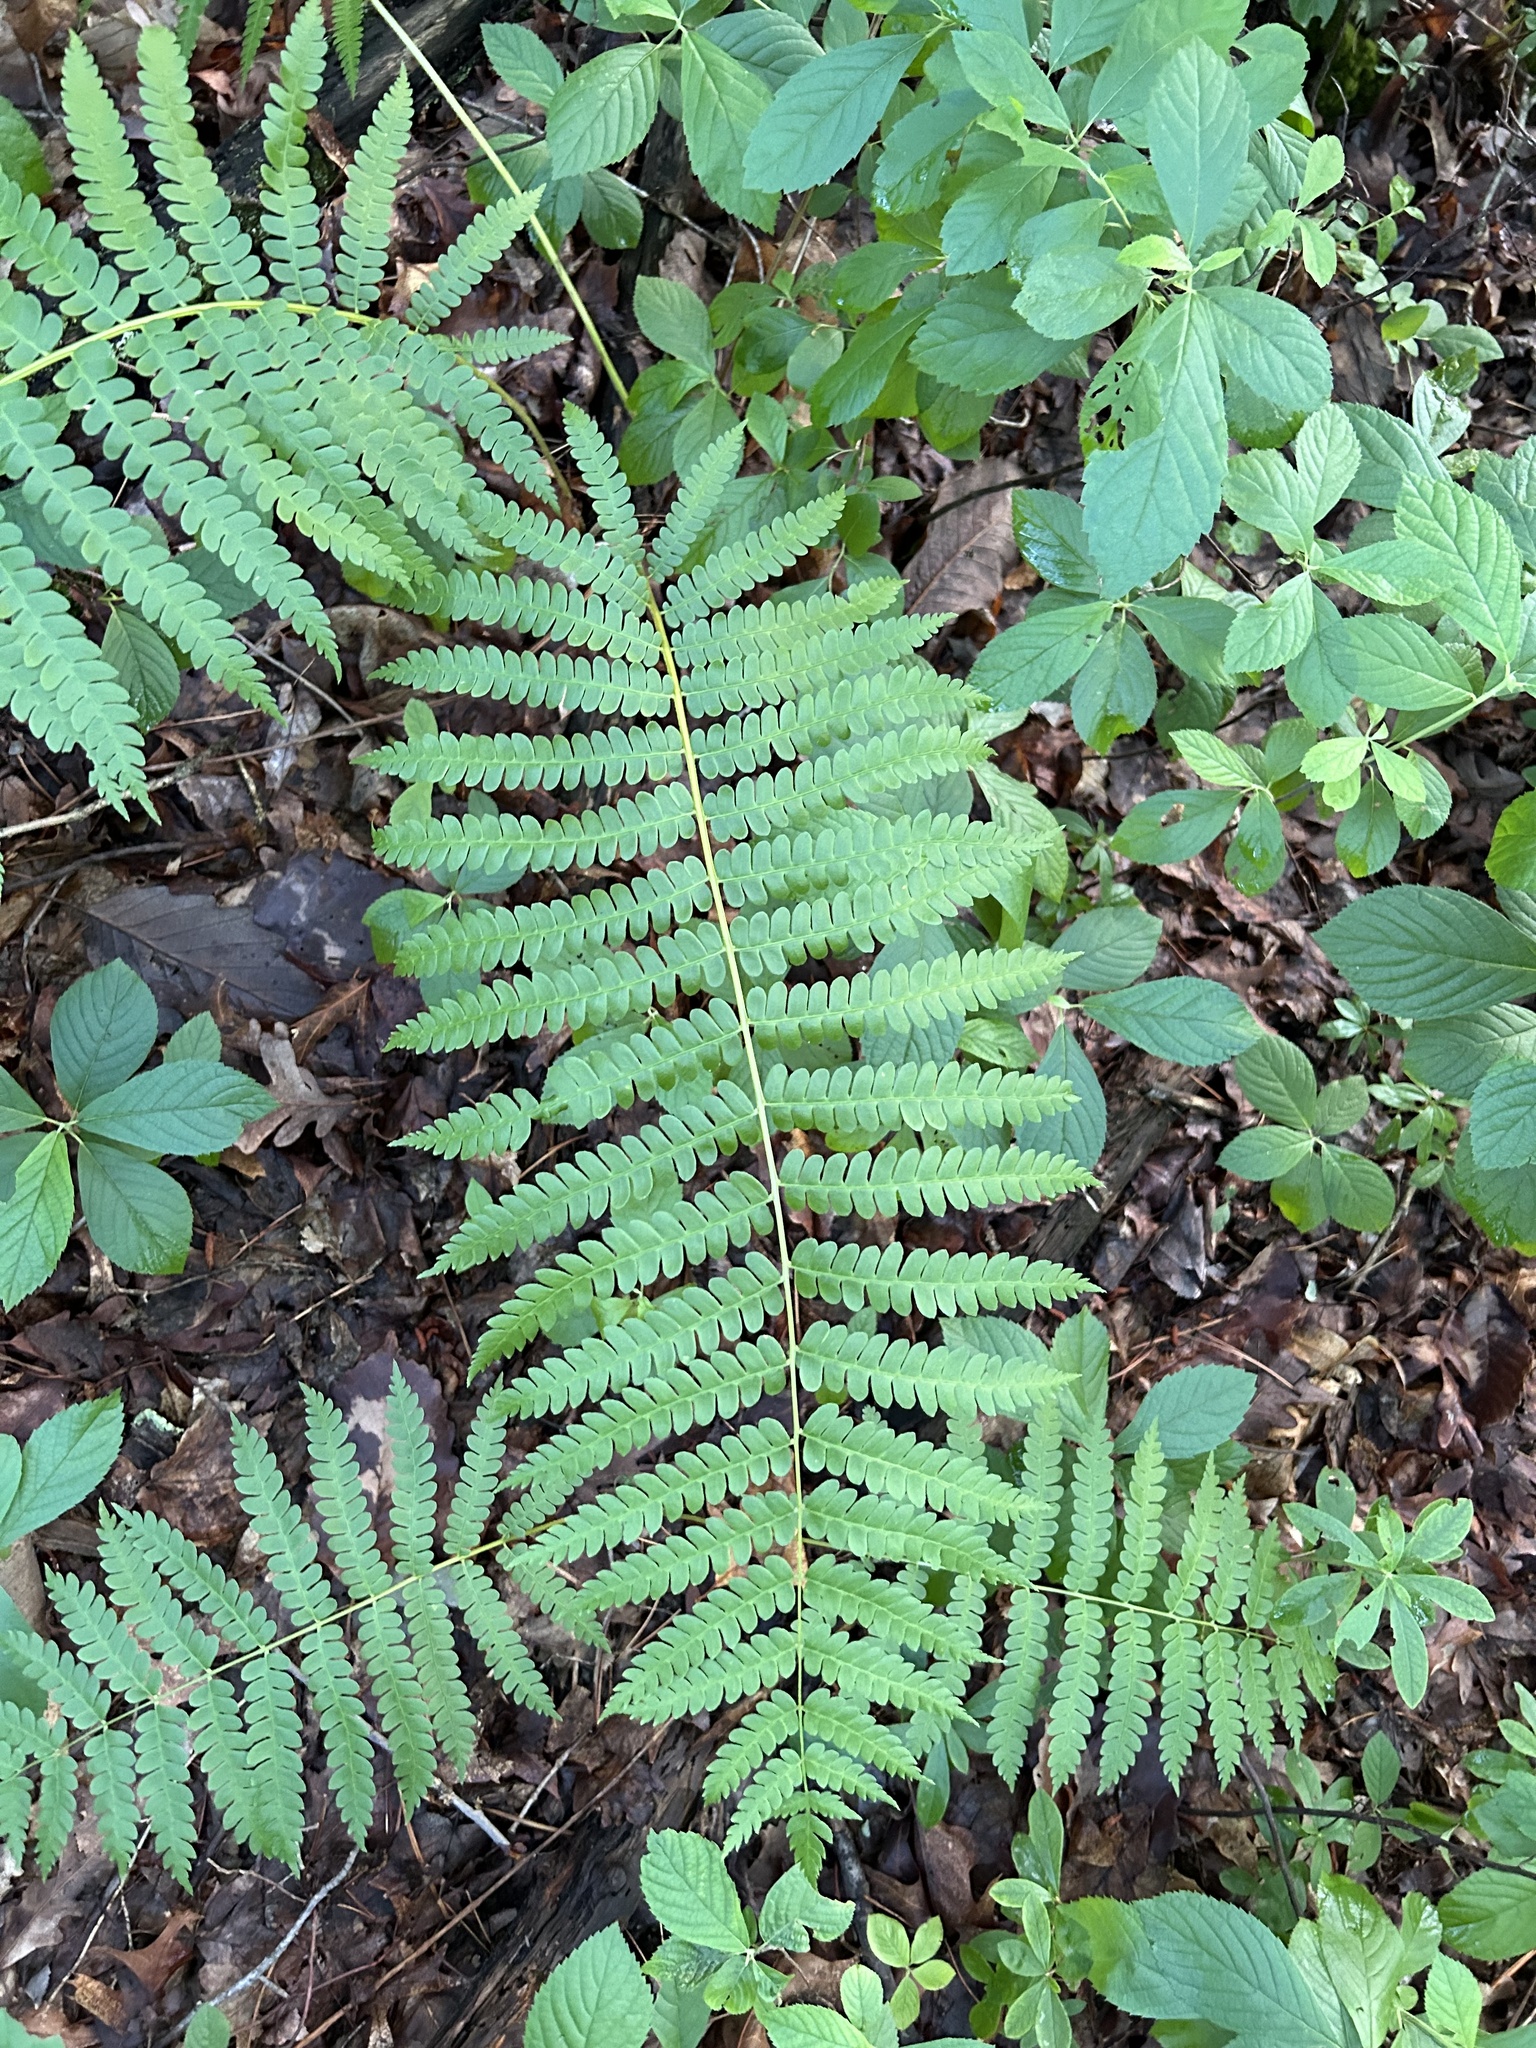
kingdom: Plantae
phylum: Tracheophyta
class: Polypodiopsida
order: Osmundales
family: Osmundaceae
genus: Osmundastrum
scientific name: Osmundastrum cinnamomeum
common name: Cinnamon fern
